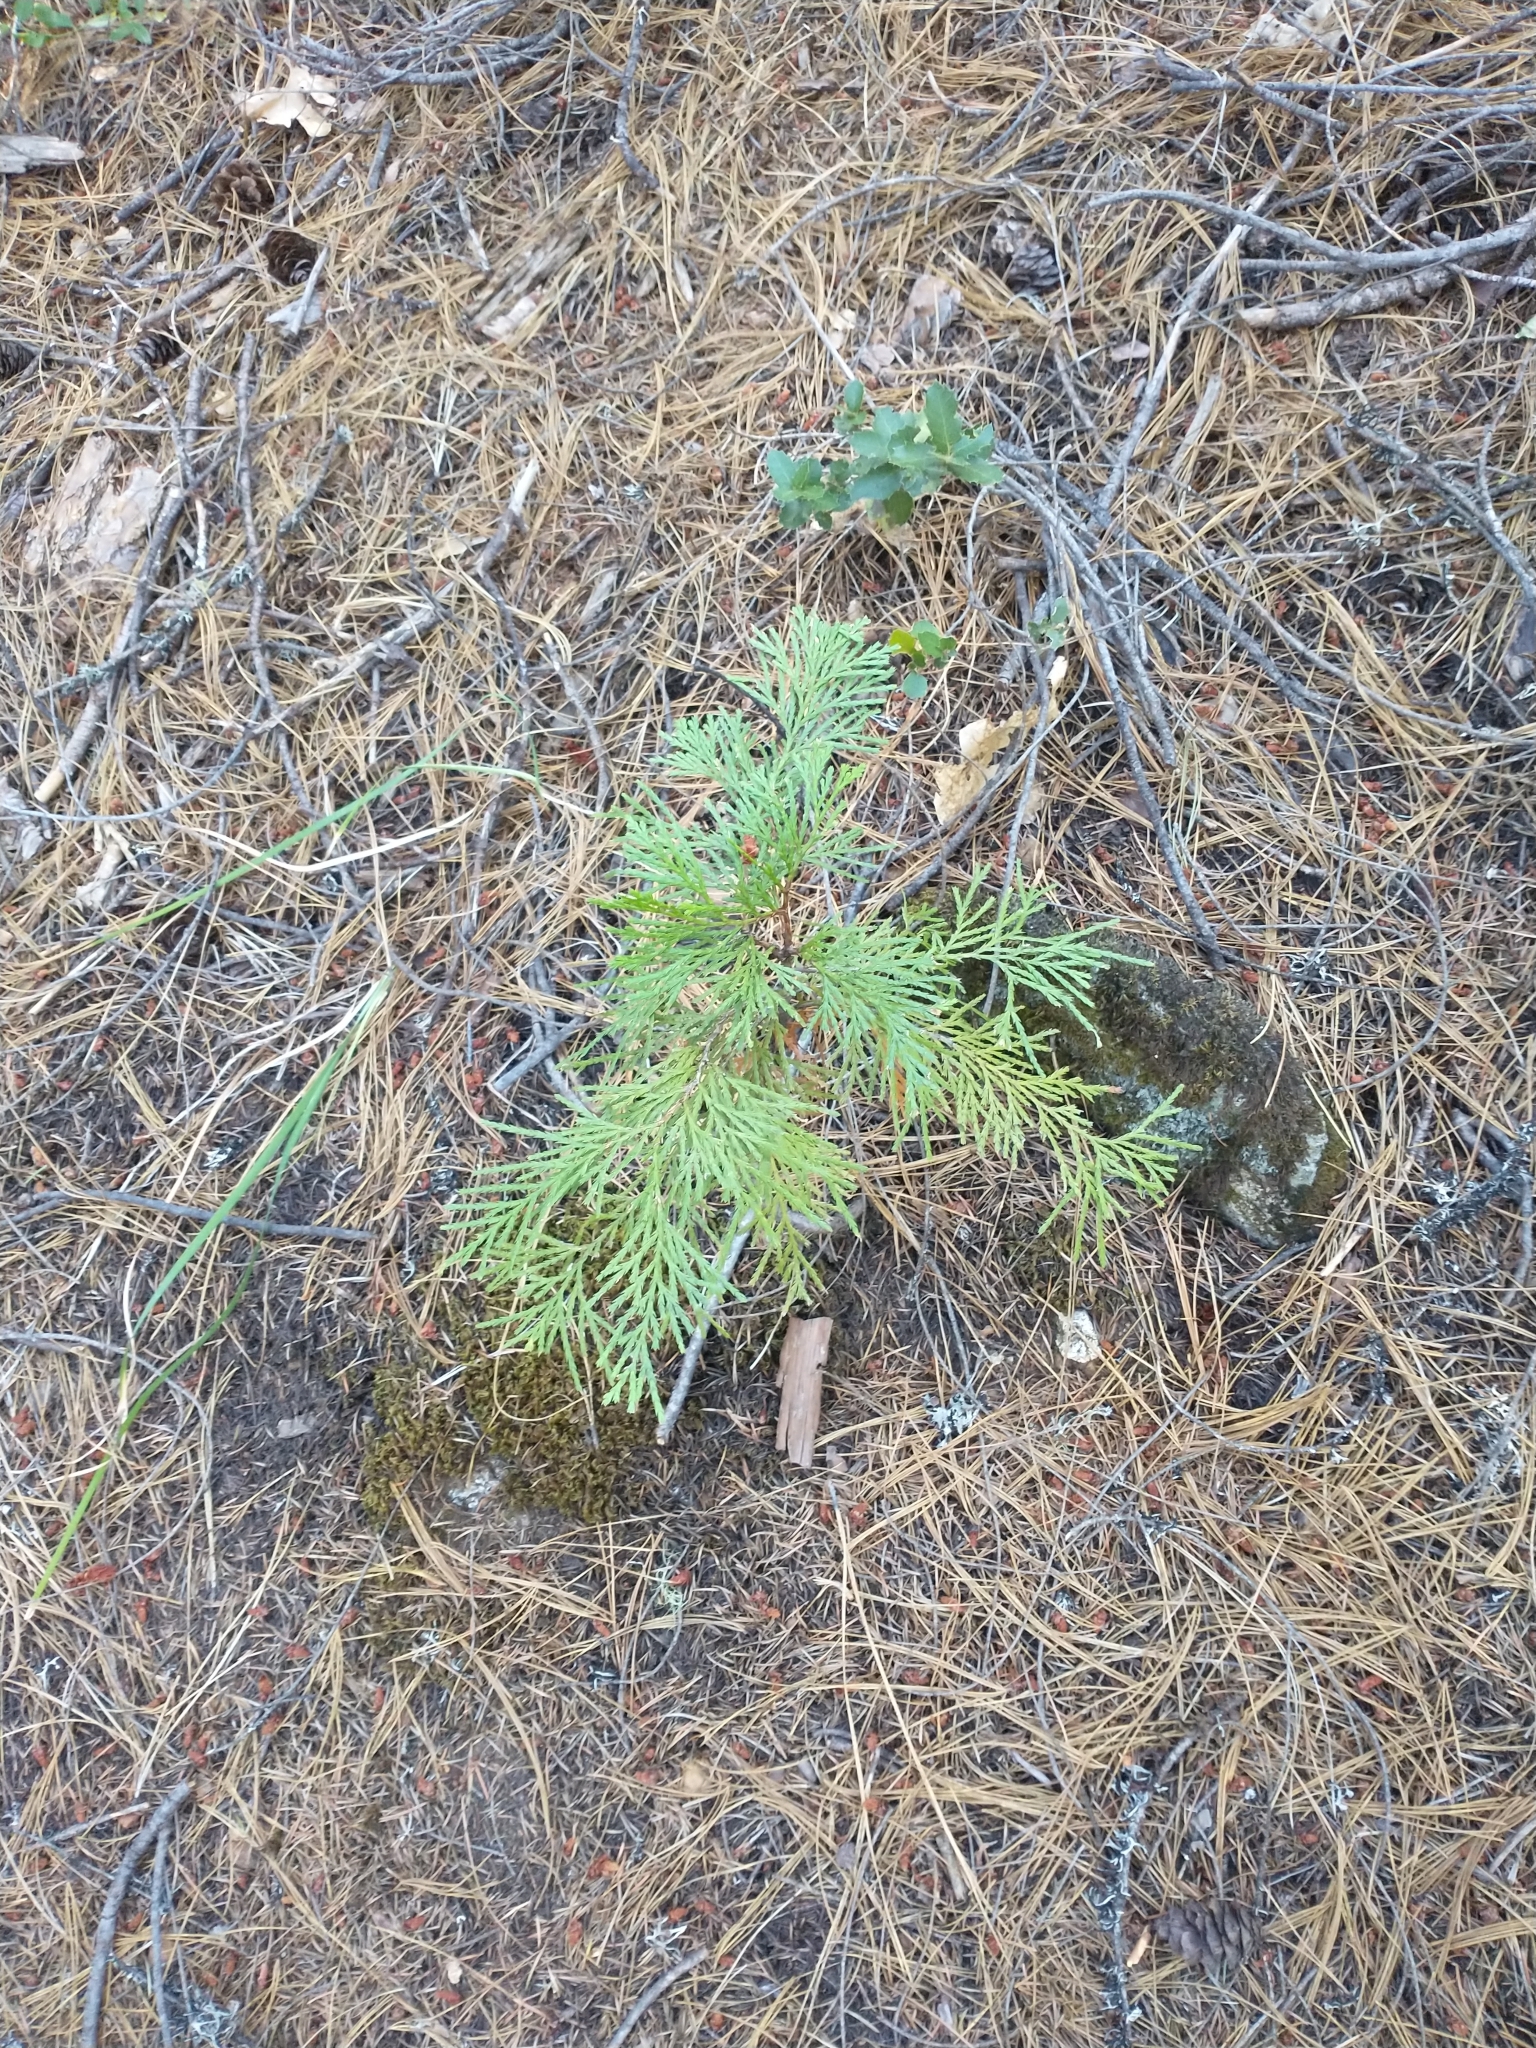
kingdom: Plantae
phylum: Tracheophyta
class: Pinopsida
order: Pinales
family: Cupressaceae
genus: Calocedrus
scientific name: Calocedrus decurrens
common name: Californian incense-cedar
